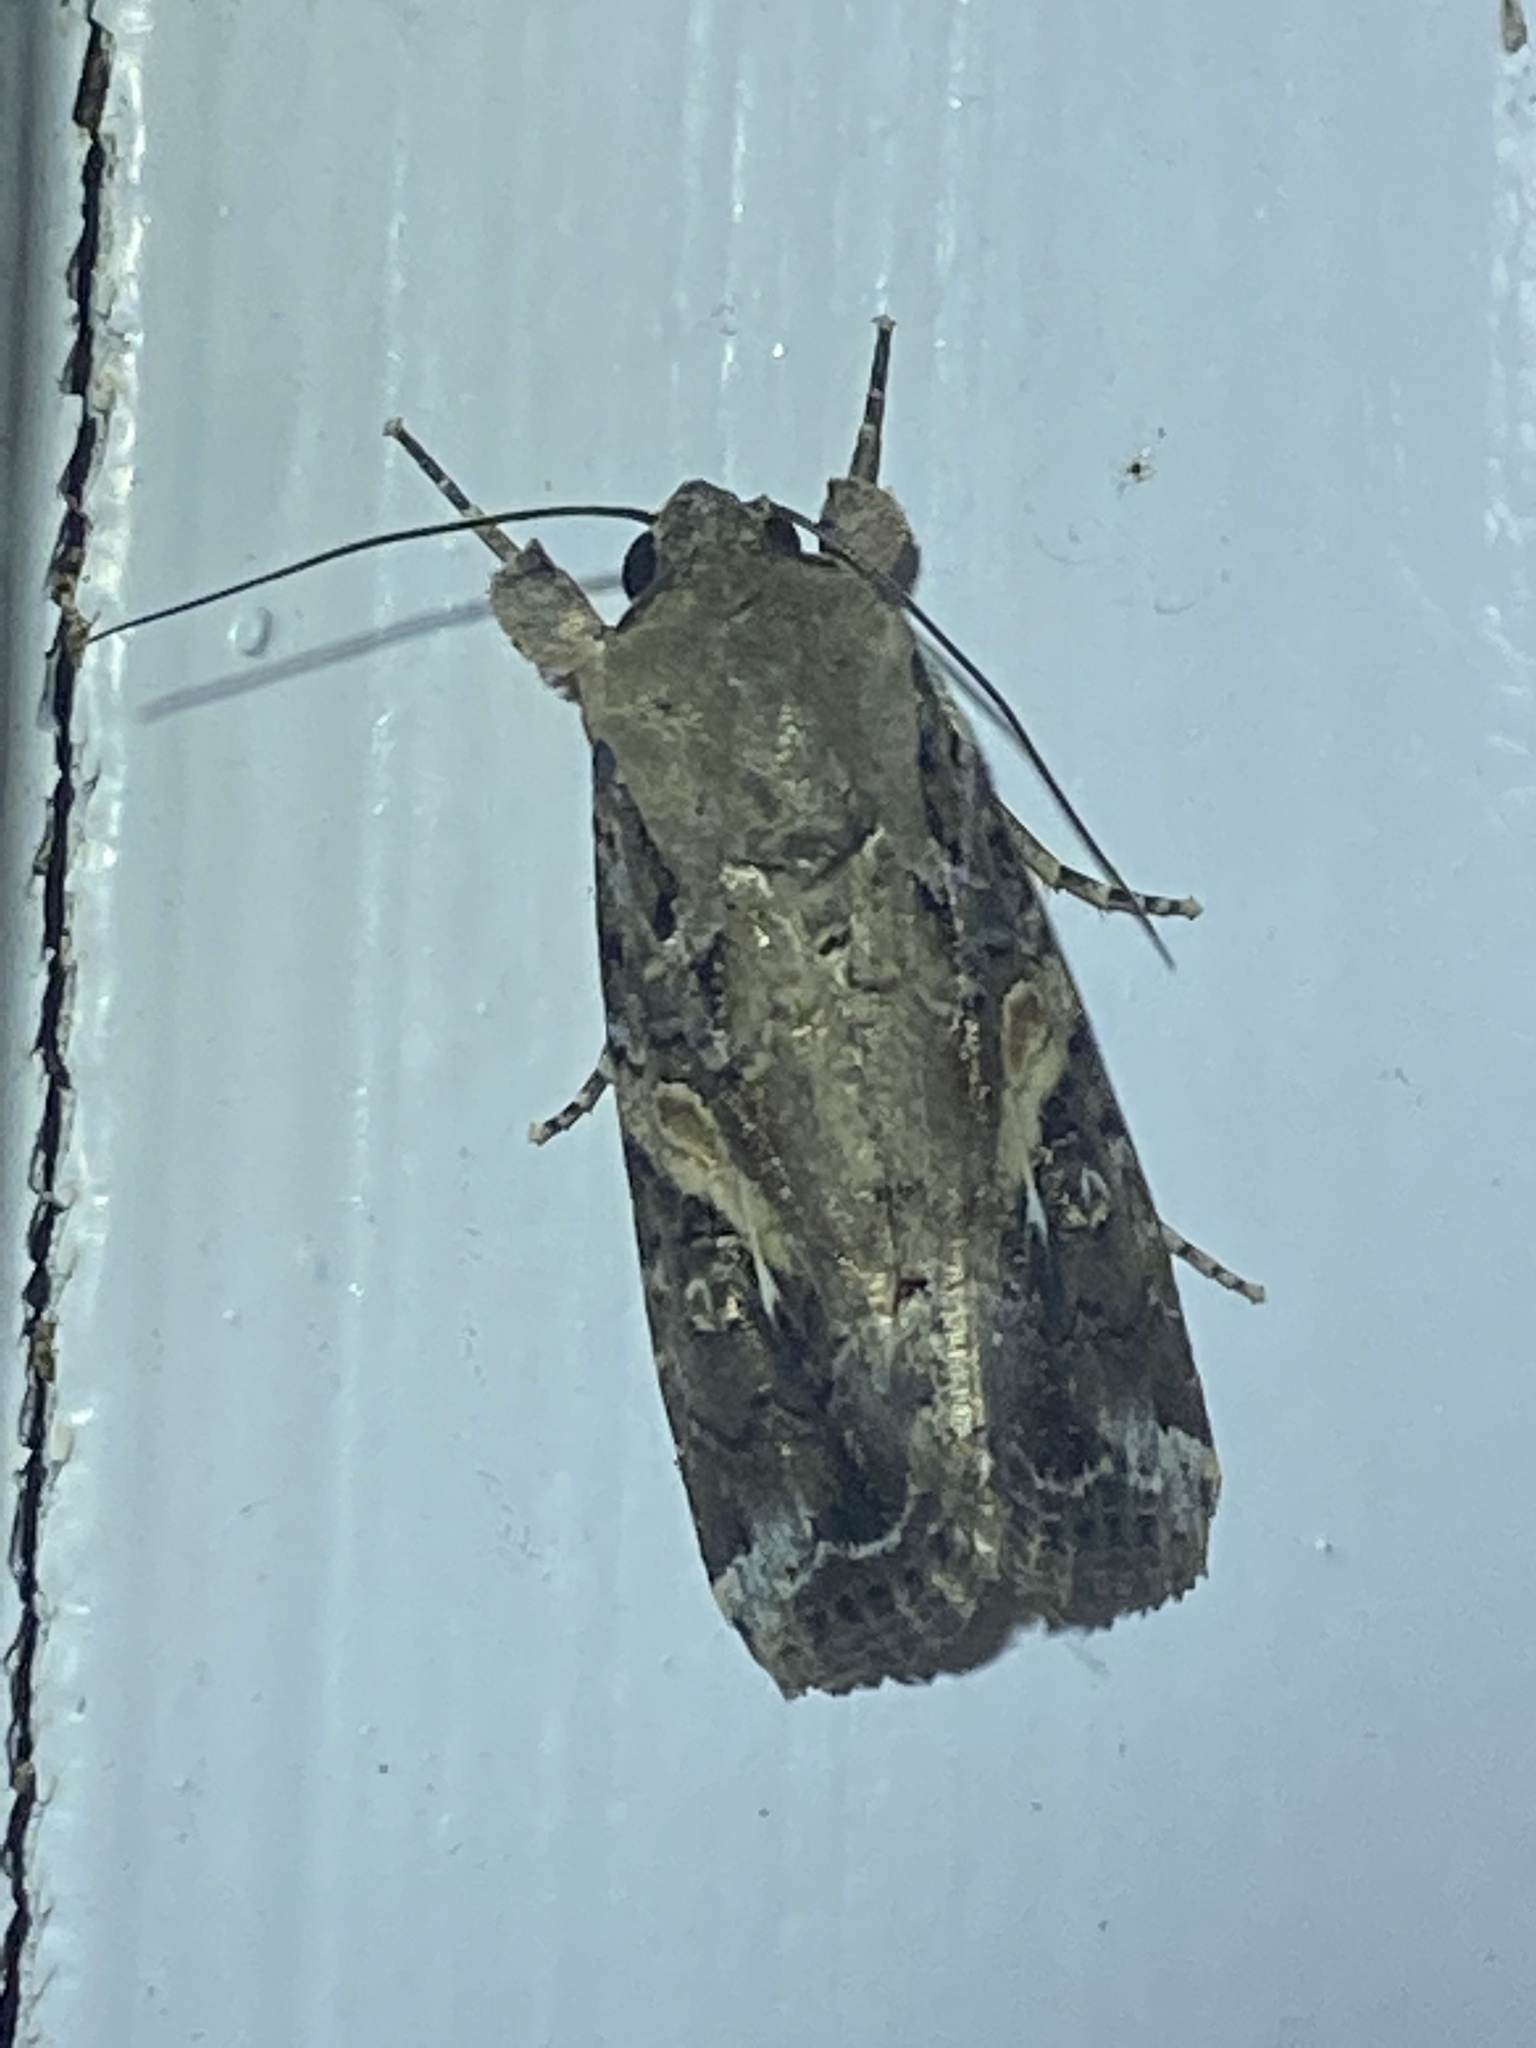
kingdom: Animalia
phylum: Arthropoda
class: Insecta
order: Lepidoptera
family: Noctuidae
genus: Spodoptera
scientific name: Spodoptera frugiperda
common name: Fall armyworm
